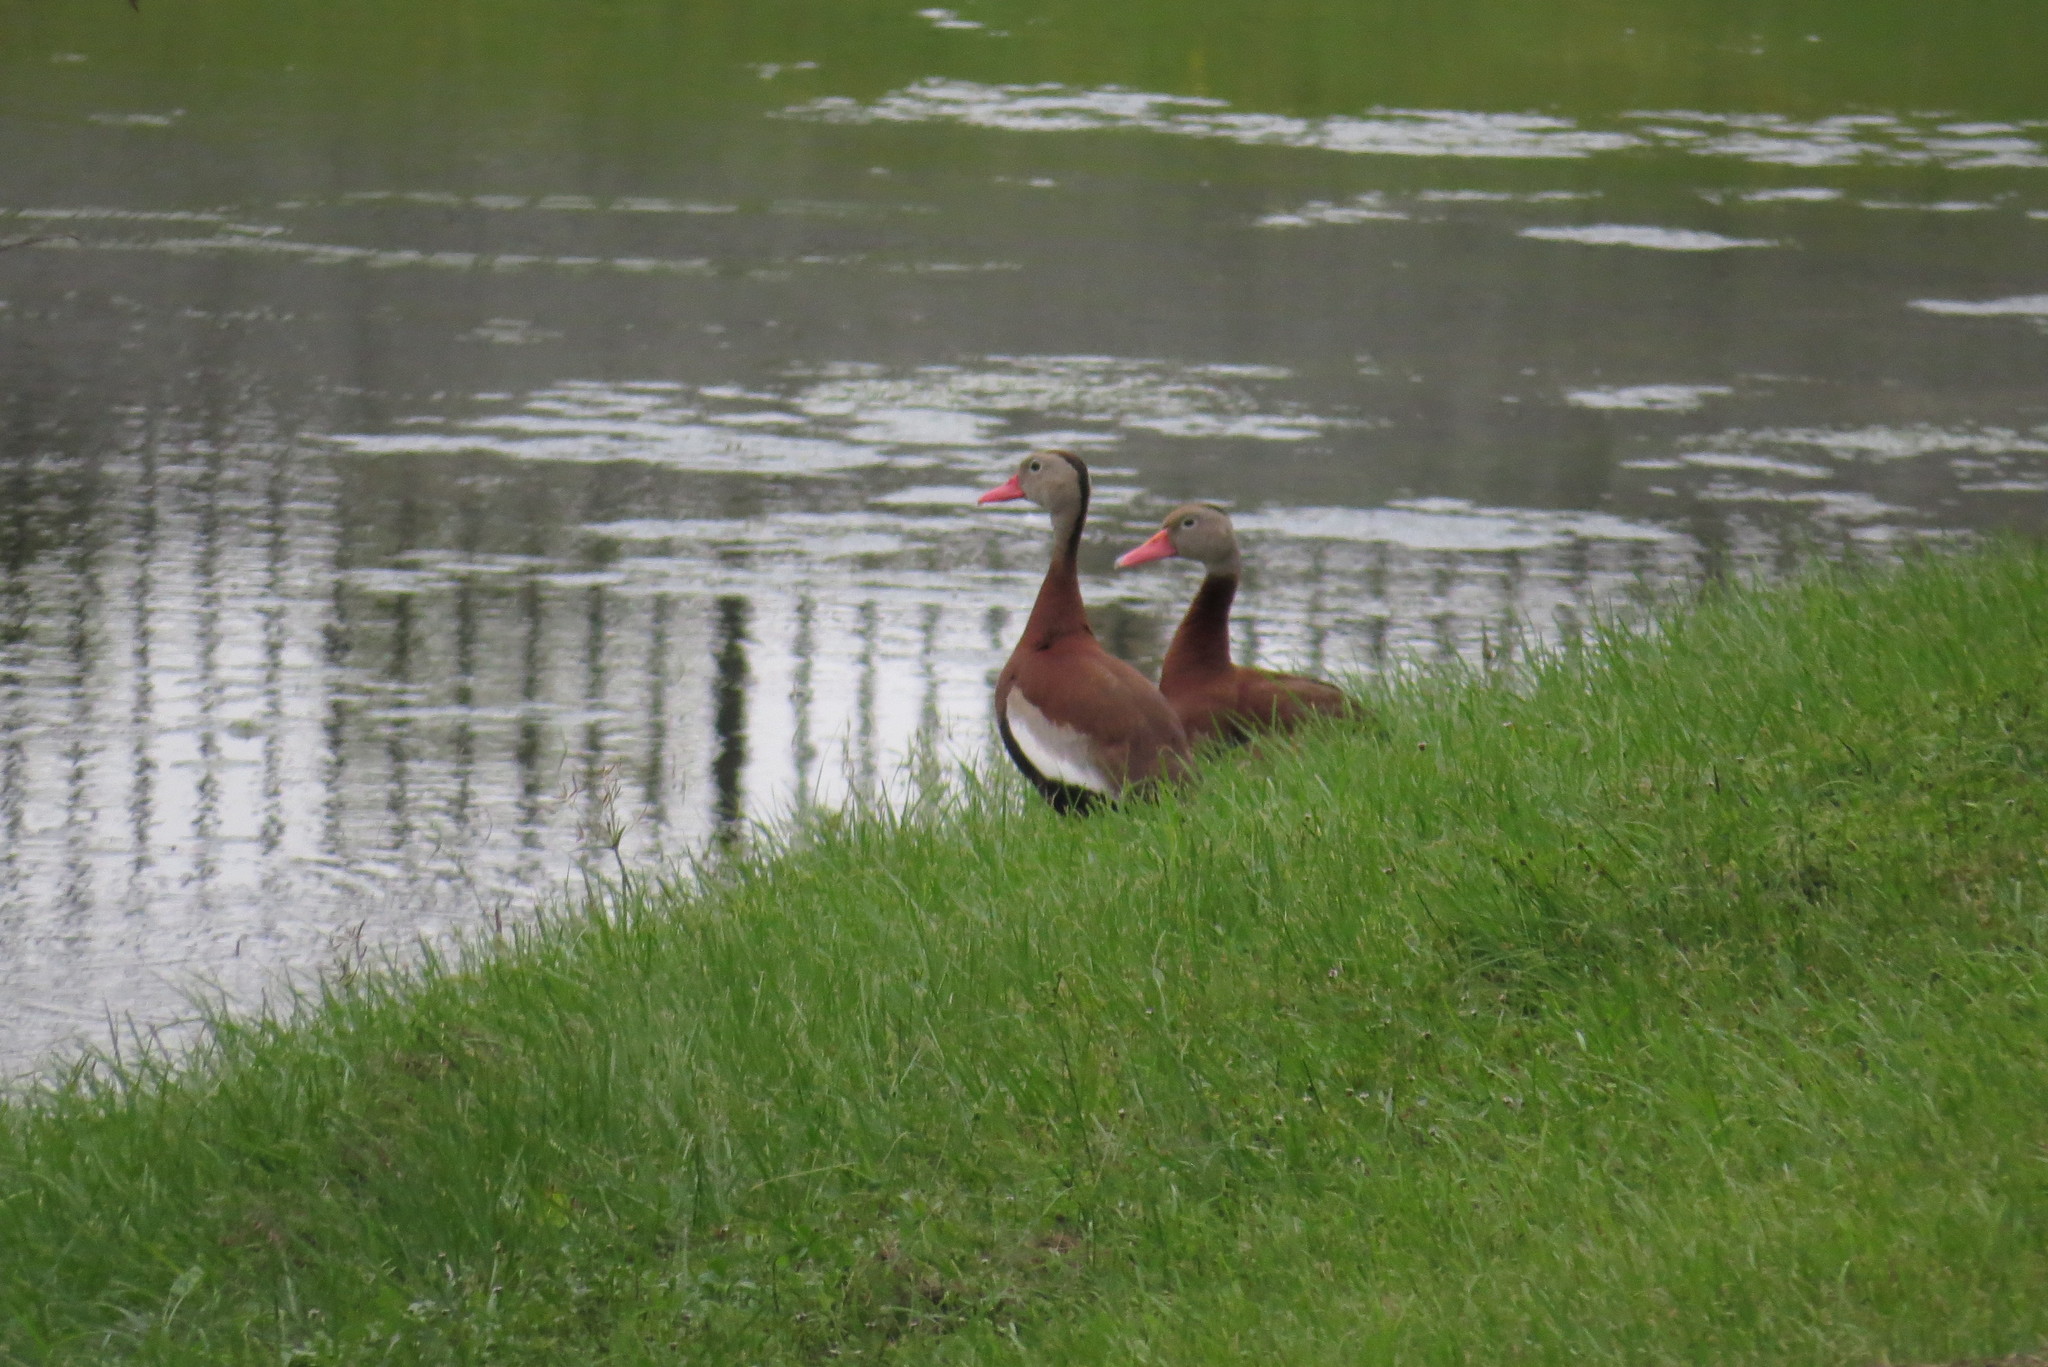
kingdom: Animalia
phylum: Chordata
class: Aves
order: Anseriformes
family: Anatidae
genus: Dendrocygna
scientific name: Dendrocygna autumnalis
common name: Black-bellied whistling duck
